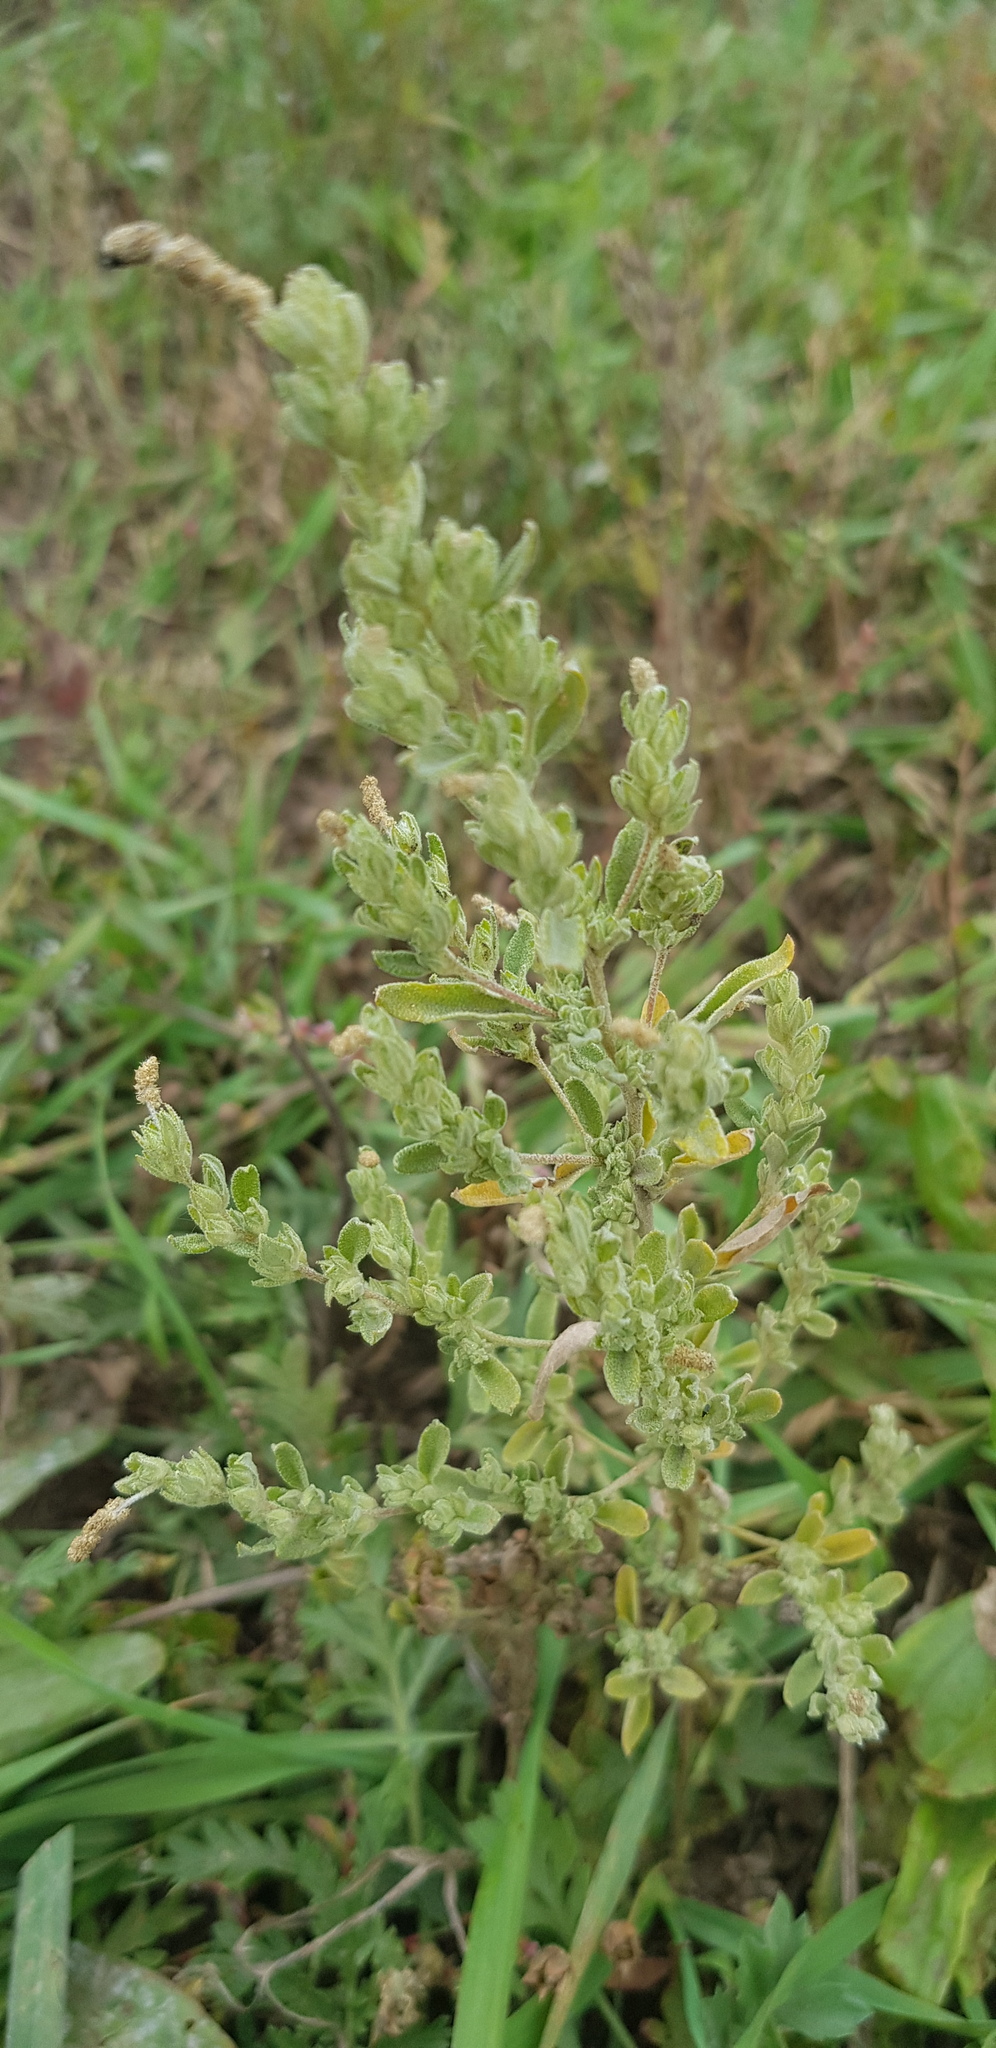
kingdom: Plantae
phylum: Tracheophyta
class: Magnoliopsida
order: Caryophyllales
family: Amaranthaceae
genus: Axyris
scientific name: Axyris amaranthoides
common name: Russian pigweed
